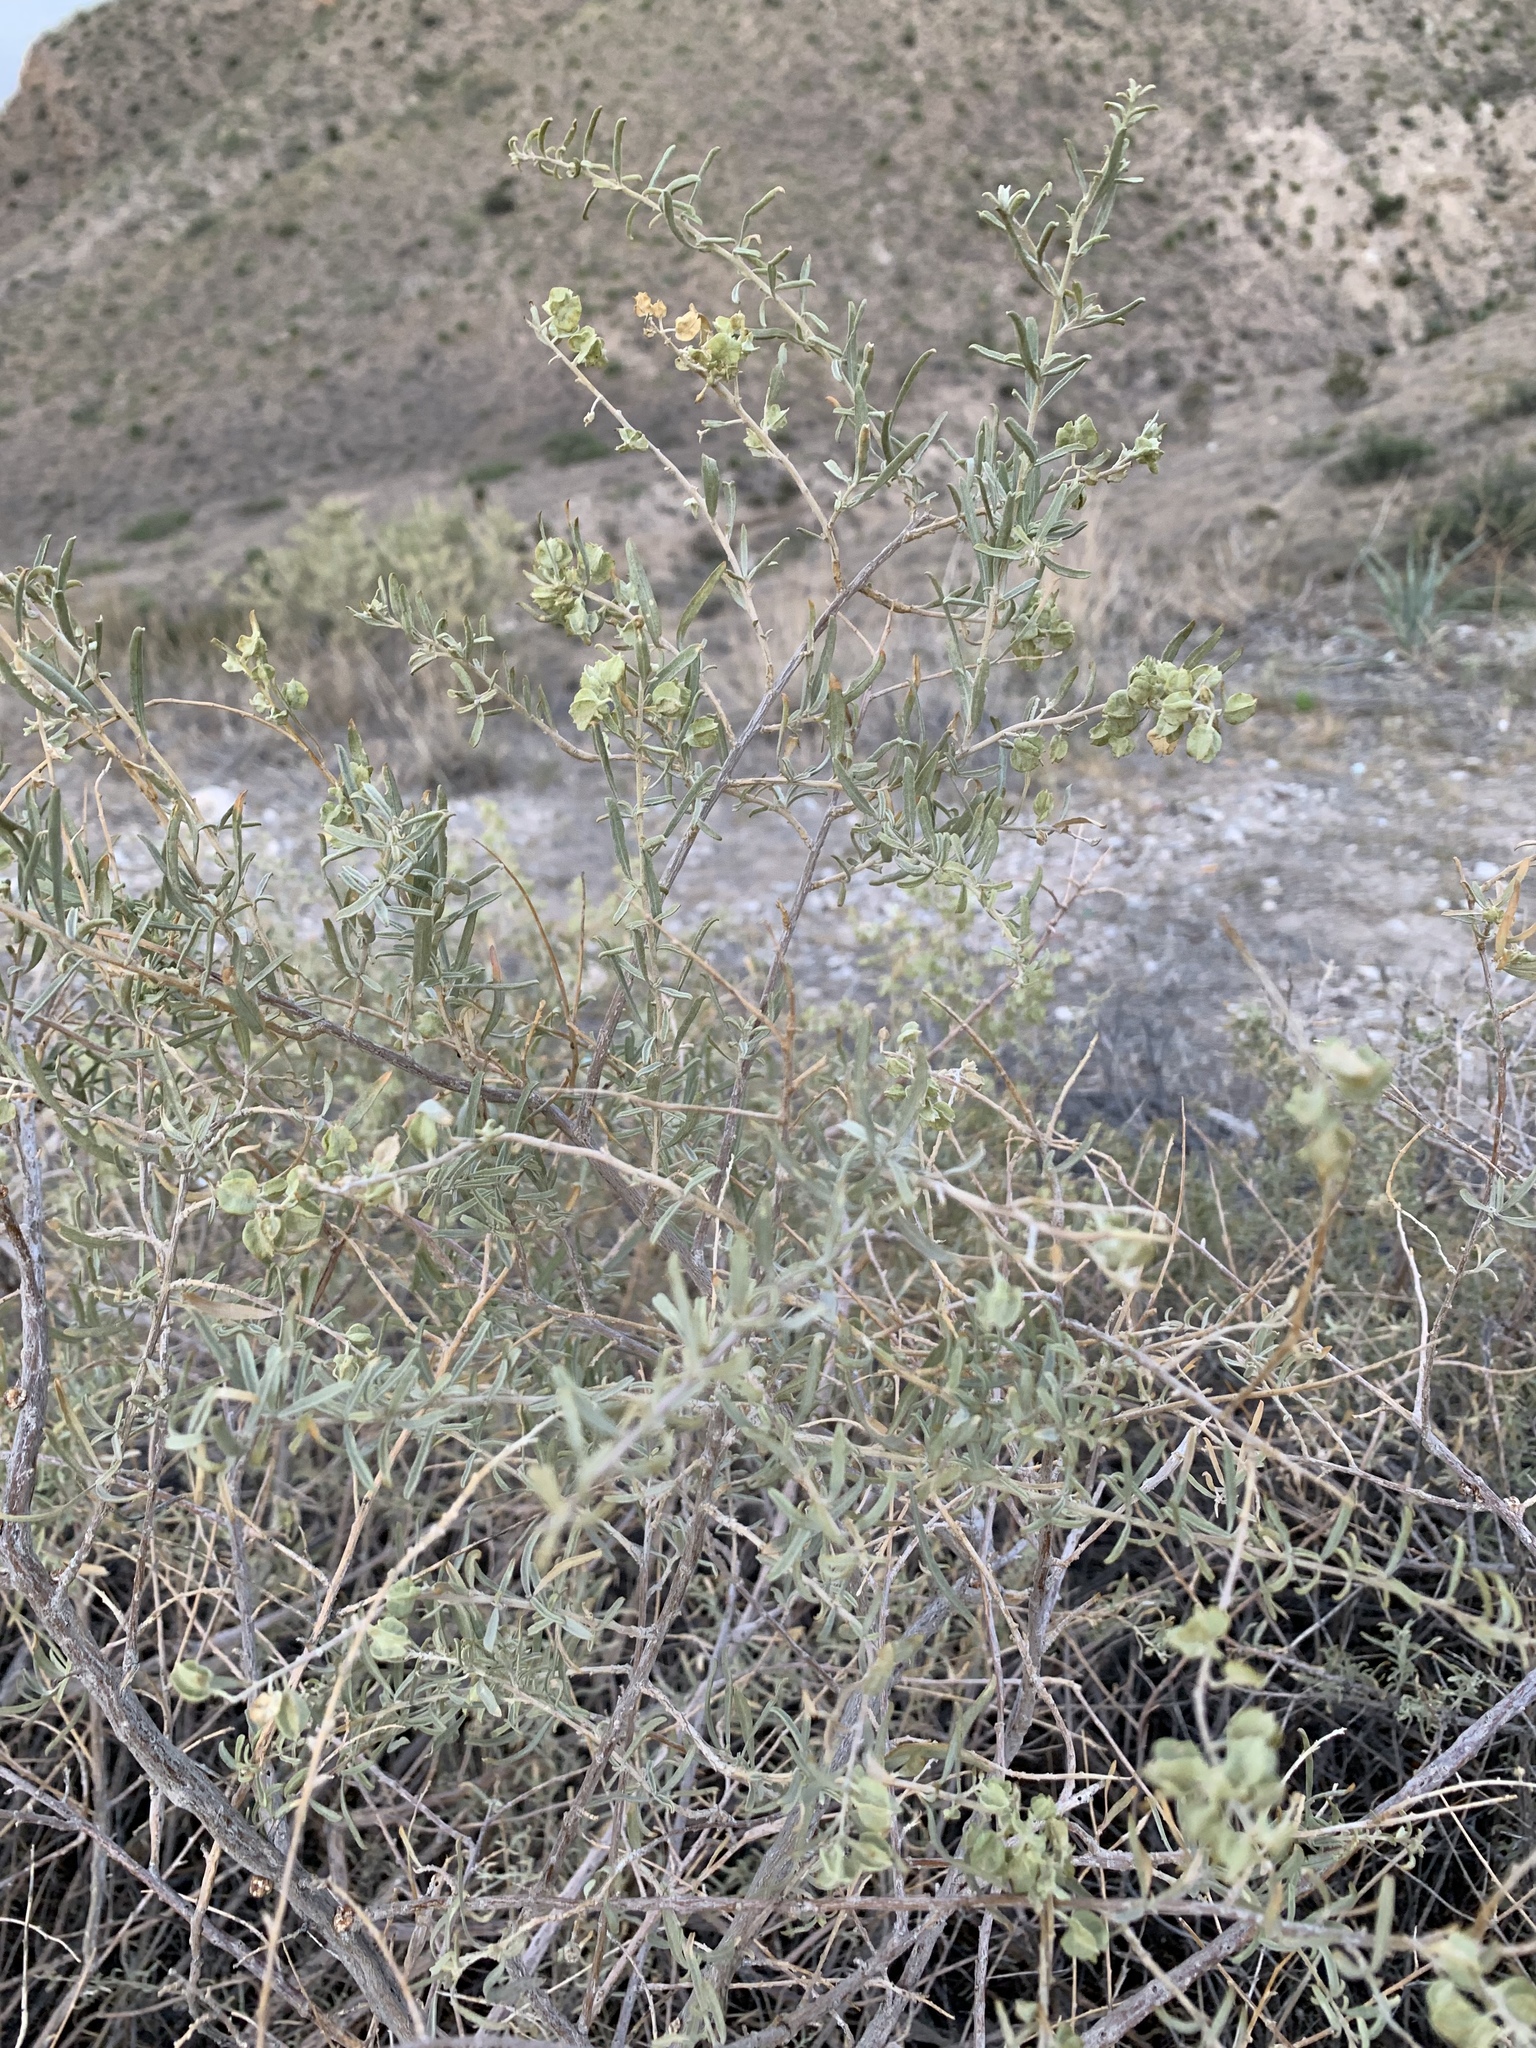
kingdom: Plantae
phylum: Tracheophyta
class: Magnoliopsida
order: Caryophyllales
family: Amaranthaceae
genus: Atriplex
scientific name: Atriplex canescens
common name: Four-wing saltbush
